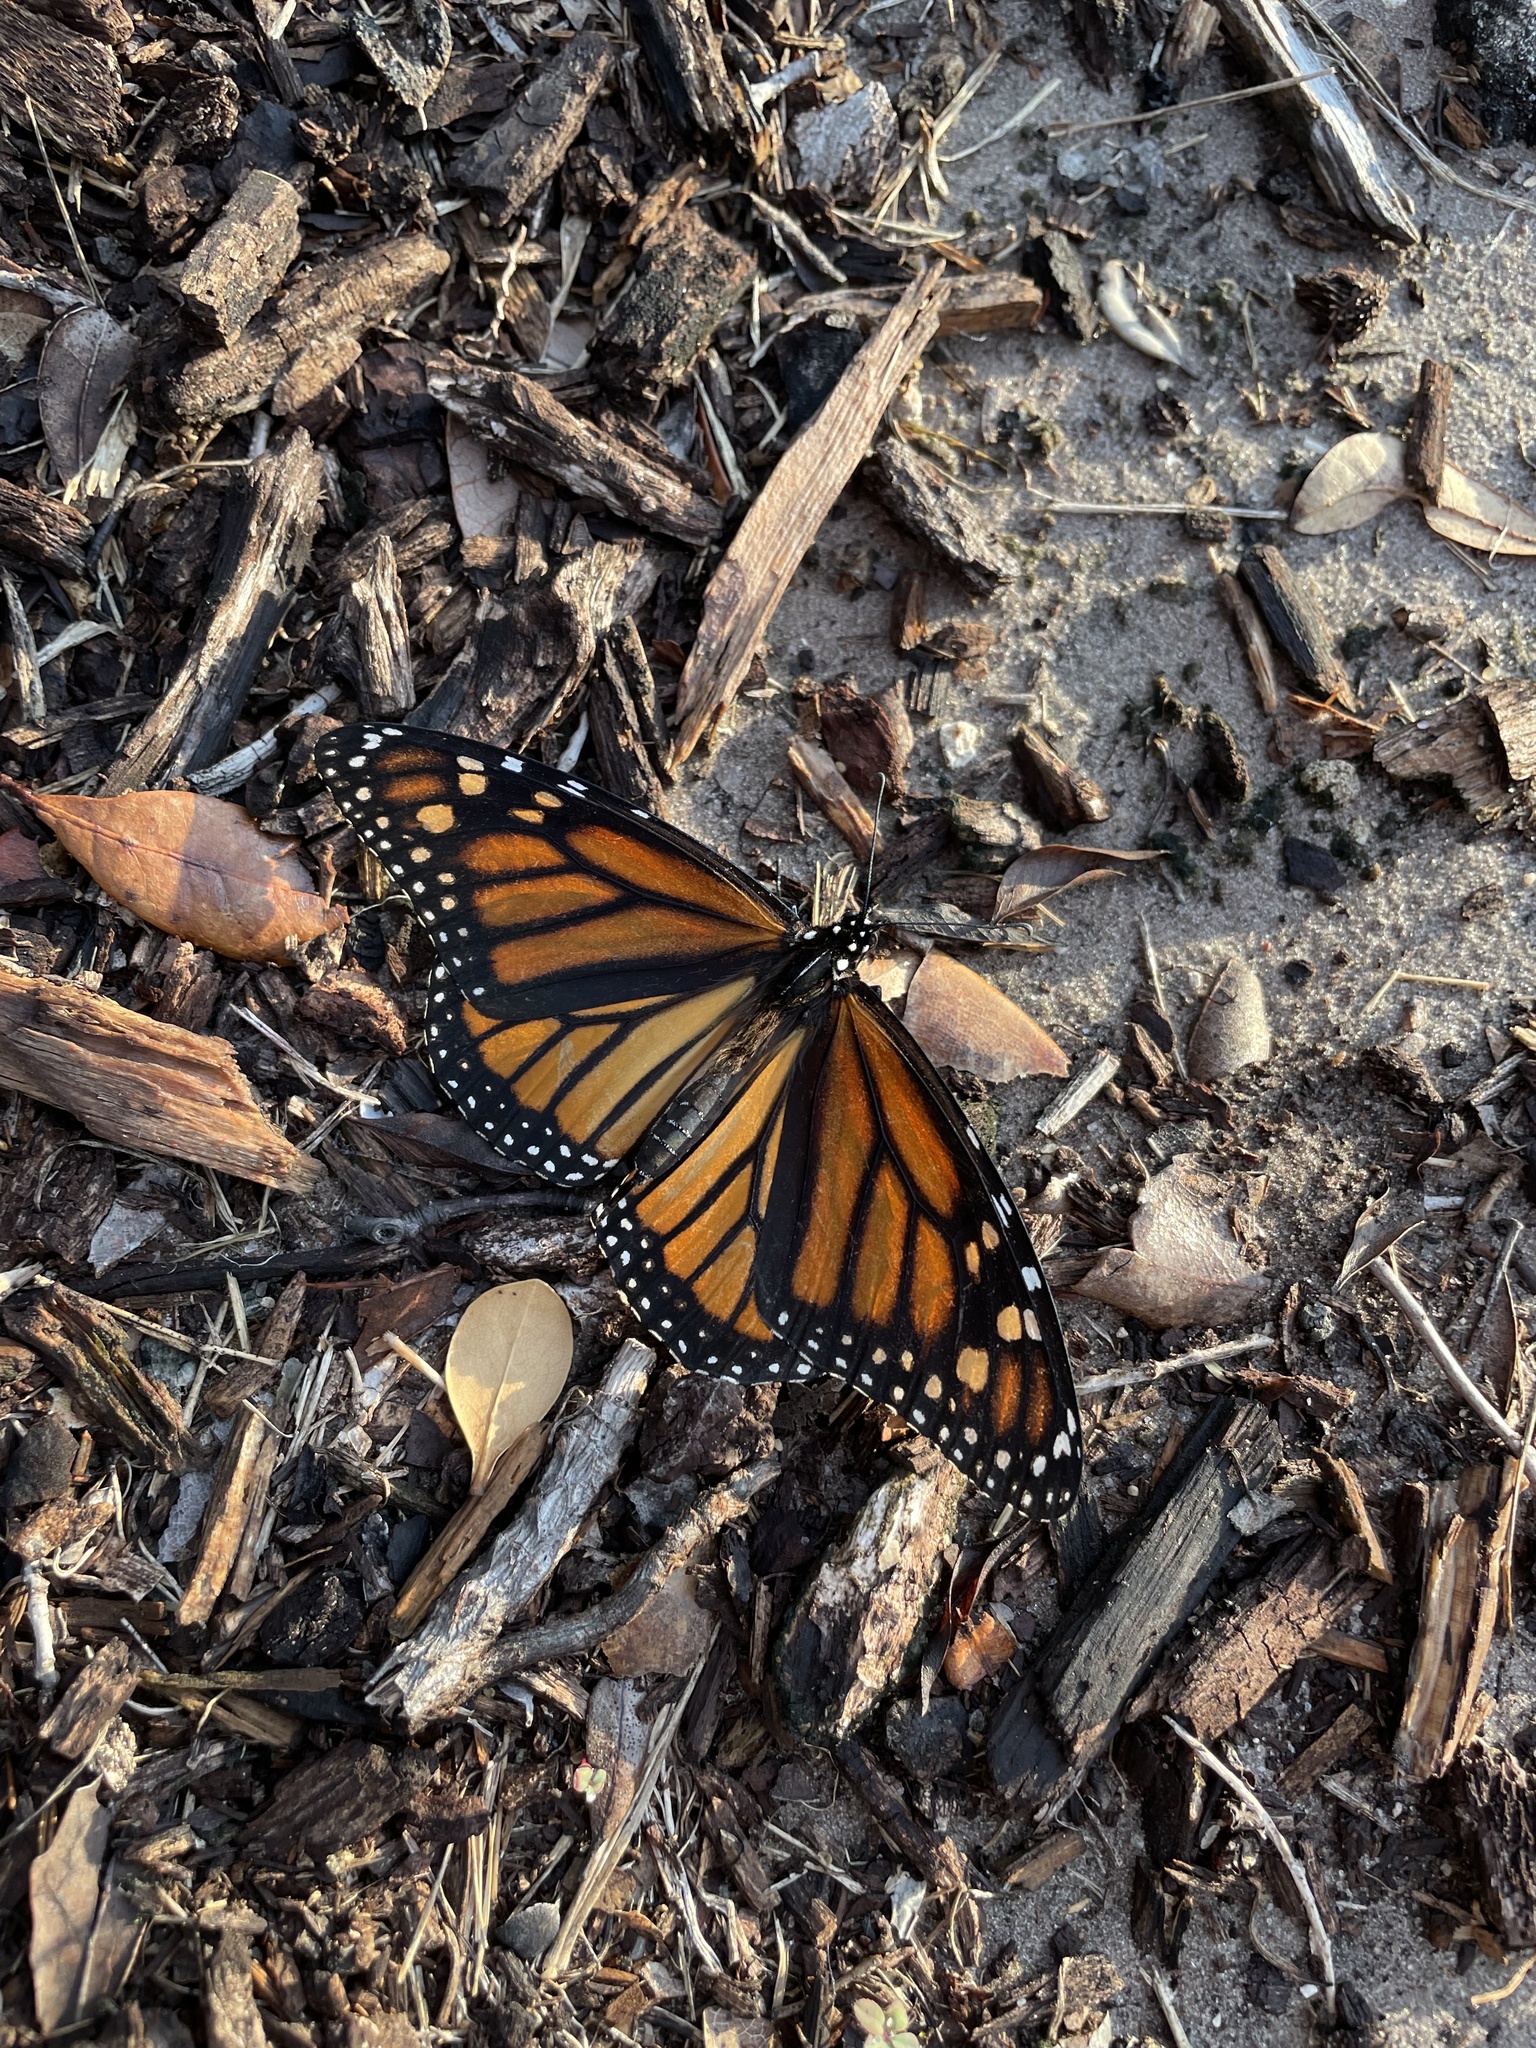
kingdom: Animalia
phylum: Arthropoda
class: Insecta
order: Lepidoptera
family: Nymphalidae
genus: Danaus
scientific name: Danaus plexippus
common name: Monarch
